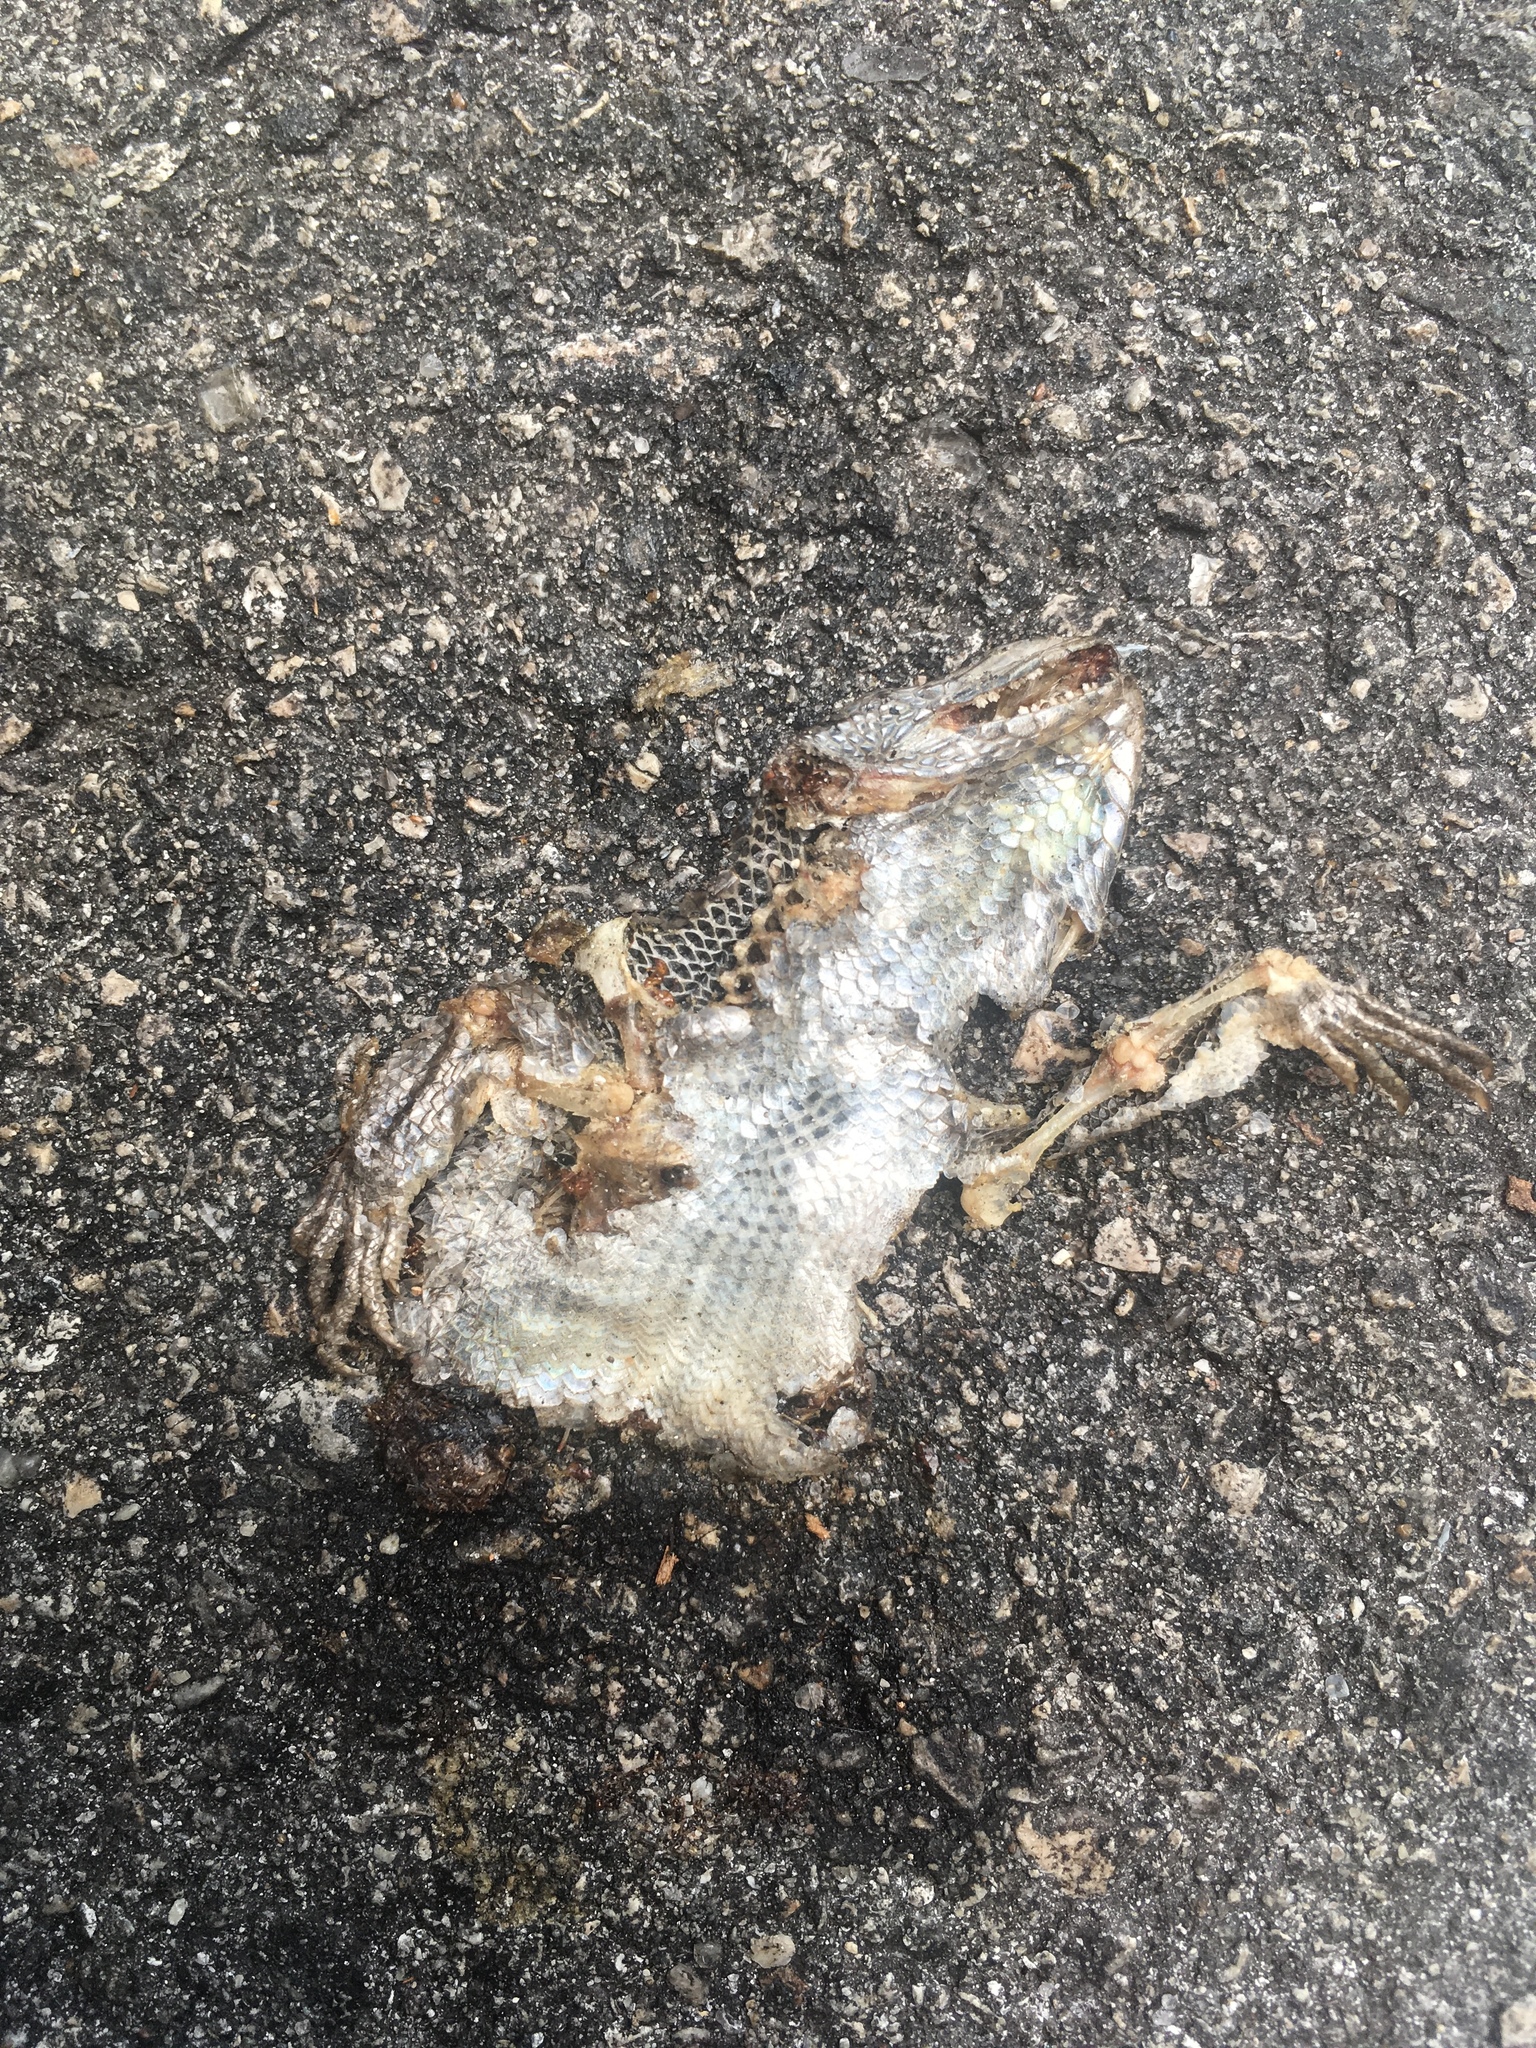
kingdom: Animalia
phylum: Chordata
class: Squamata
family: Leiocephalidae
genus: Leiocephalus
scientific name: Leiocephalus carinatus
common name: Northern curly-tailed lizard
